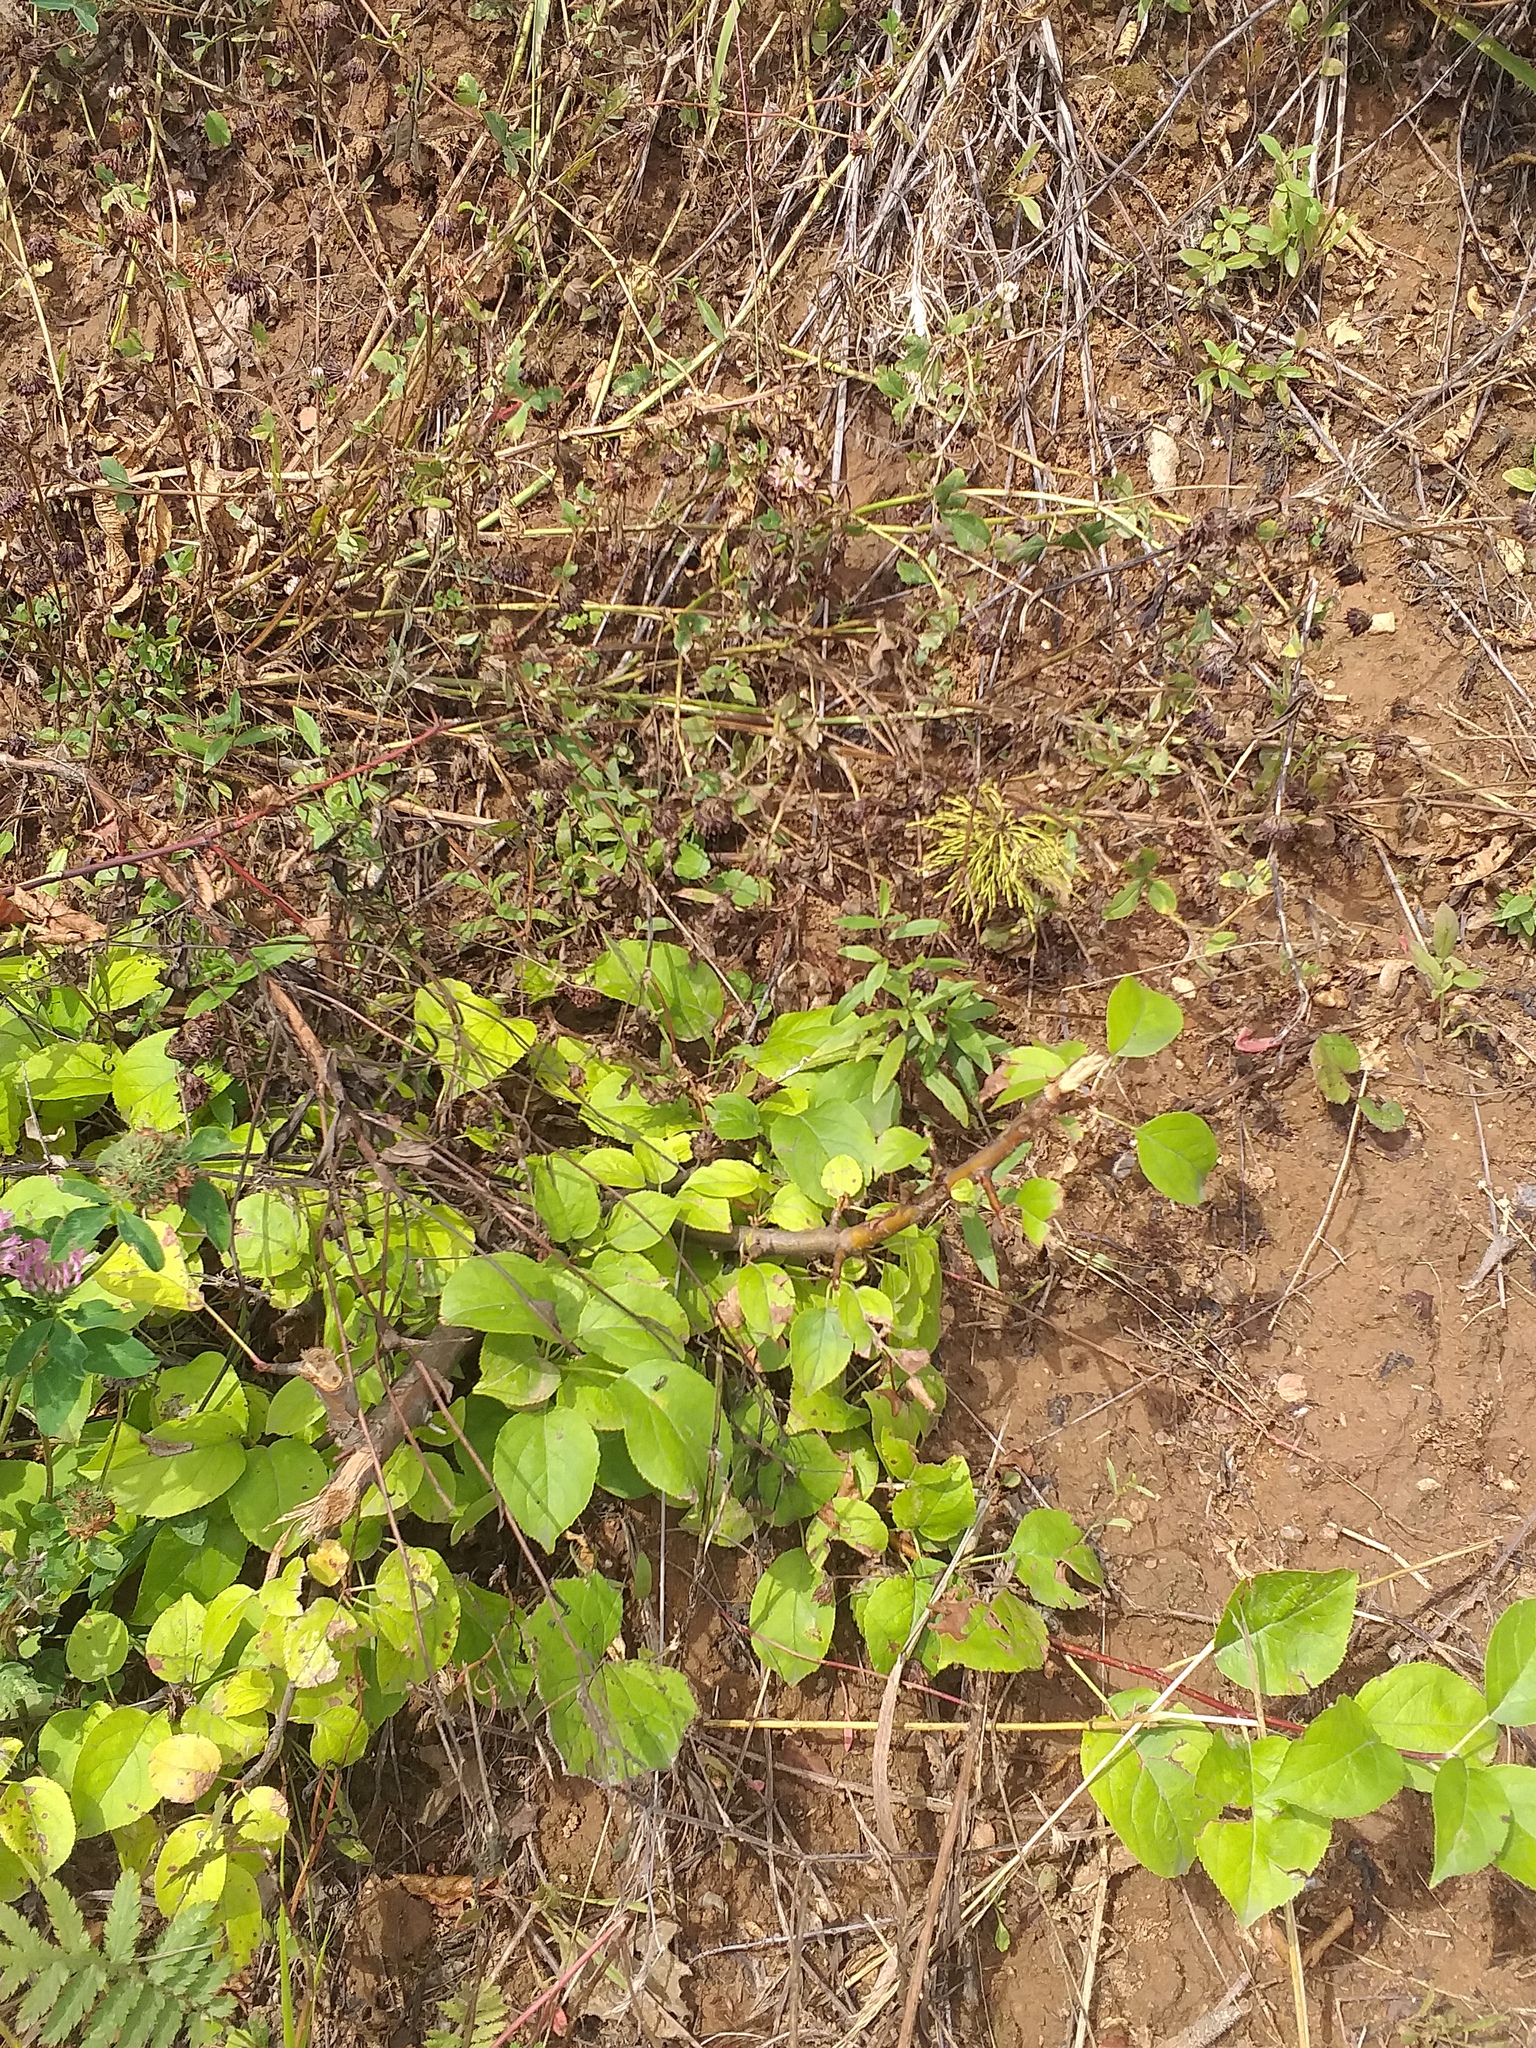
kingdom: Plantae
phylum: Tracheophyta
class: Magnoliopsida
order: Rosales
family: Rosaceae
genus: Malus
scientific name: Malus domestica
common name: Apple
